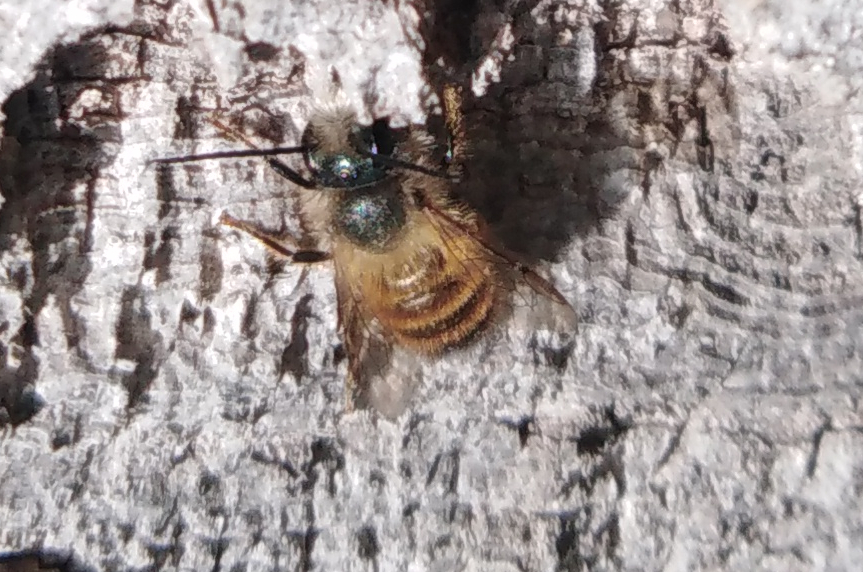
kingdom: Animalia
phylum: Arthropoda
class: Insecta
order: Hymenoptera
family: Megachilidae
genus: Osmia
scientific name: Osmia bicornis
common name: Red mason bee
